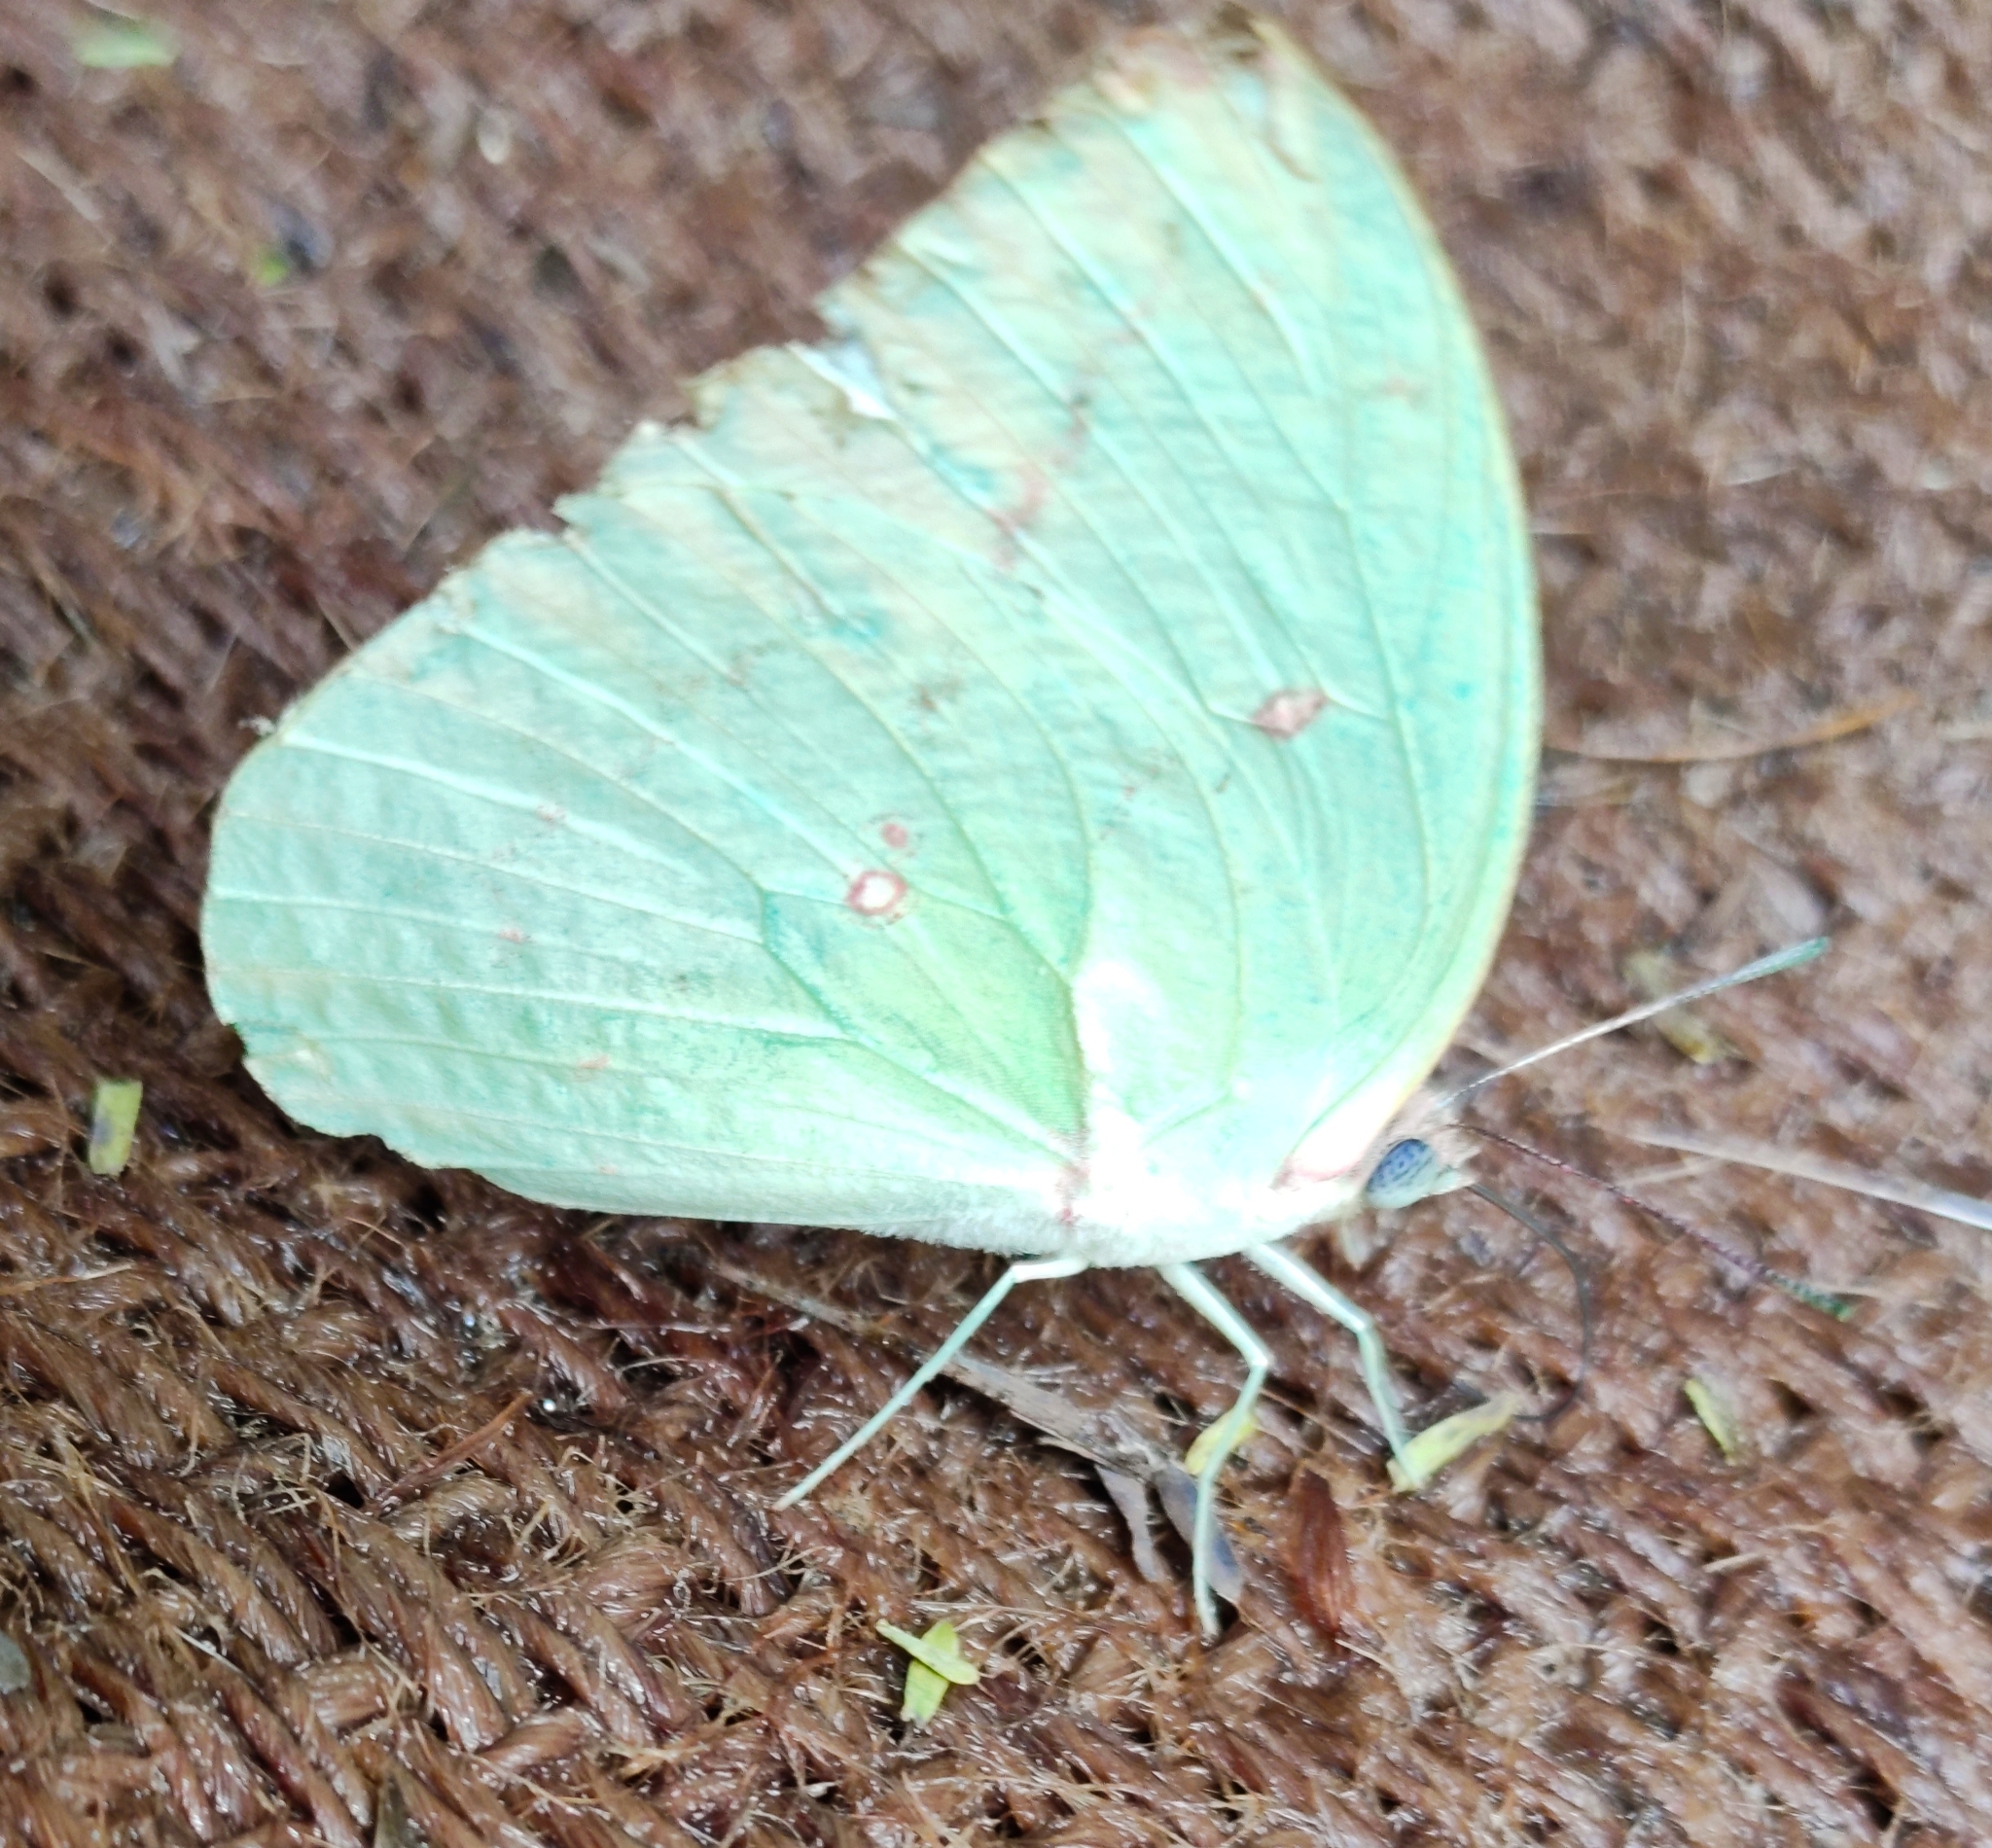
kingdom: Animalia
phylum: Arthropoda
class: Insecta
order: Lepidoptera
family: Pieridae
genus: Catopsilia
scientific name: Catopsilia pomona
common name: Common emigrant
